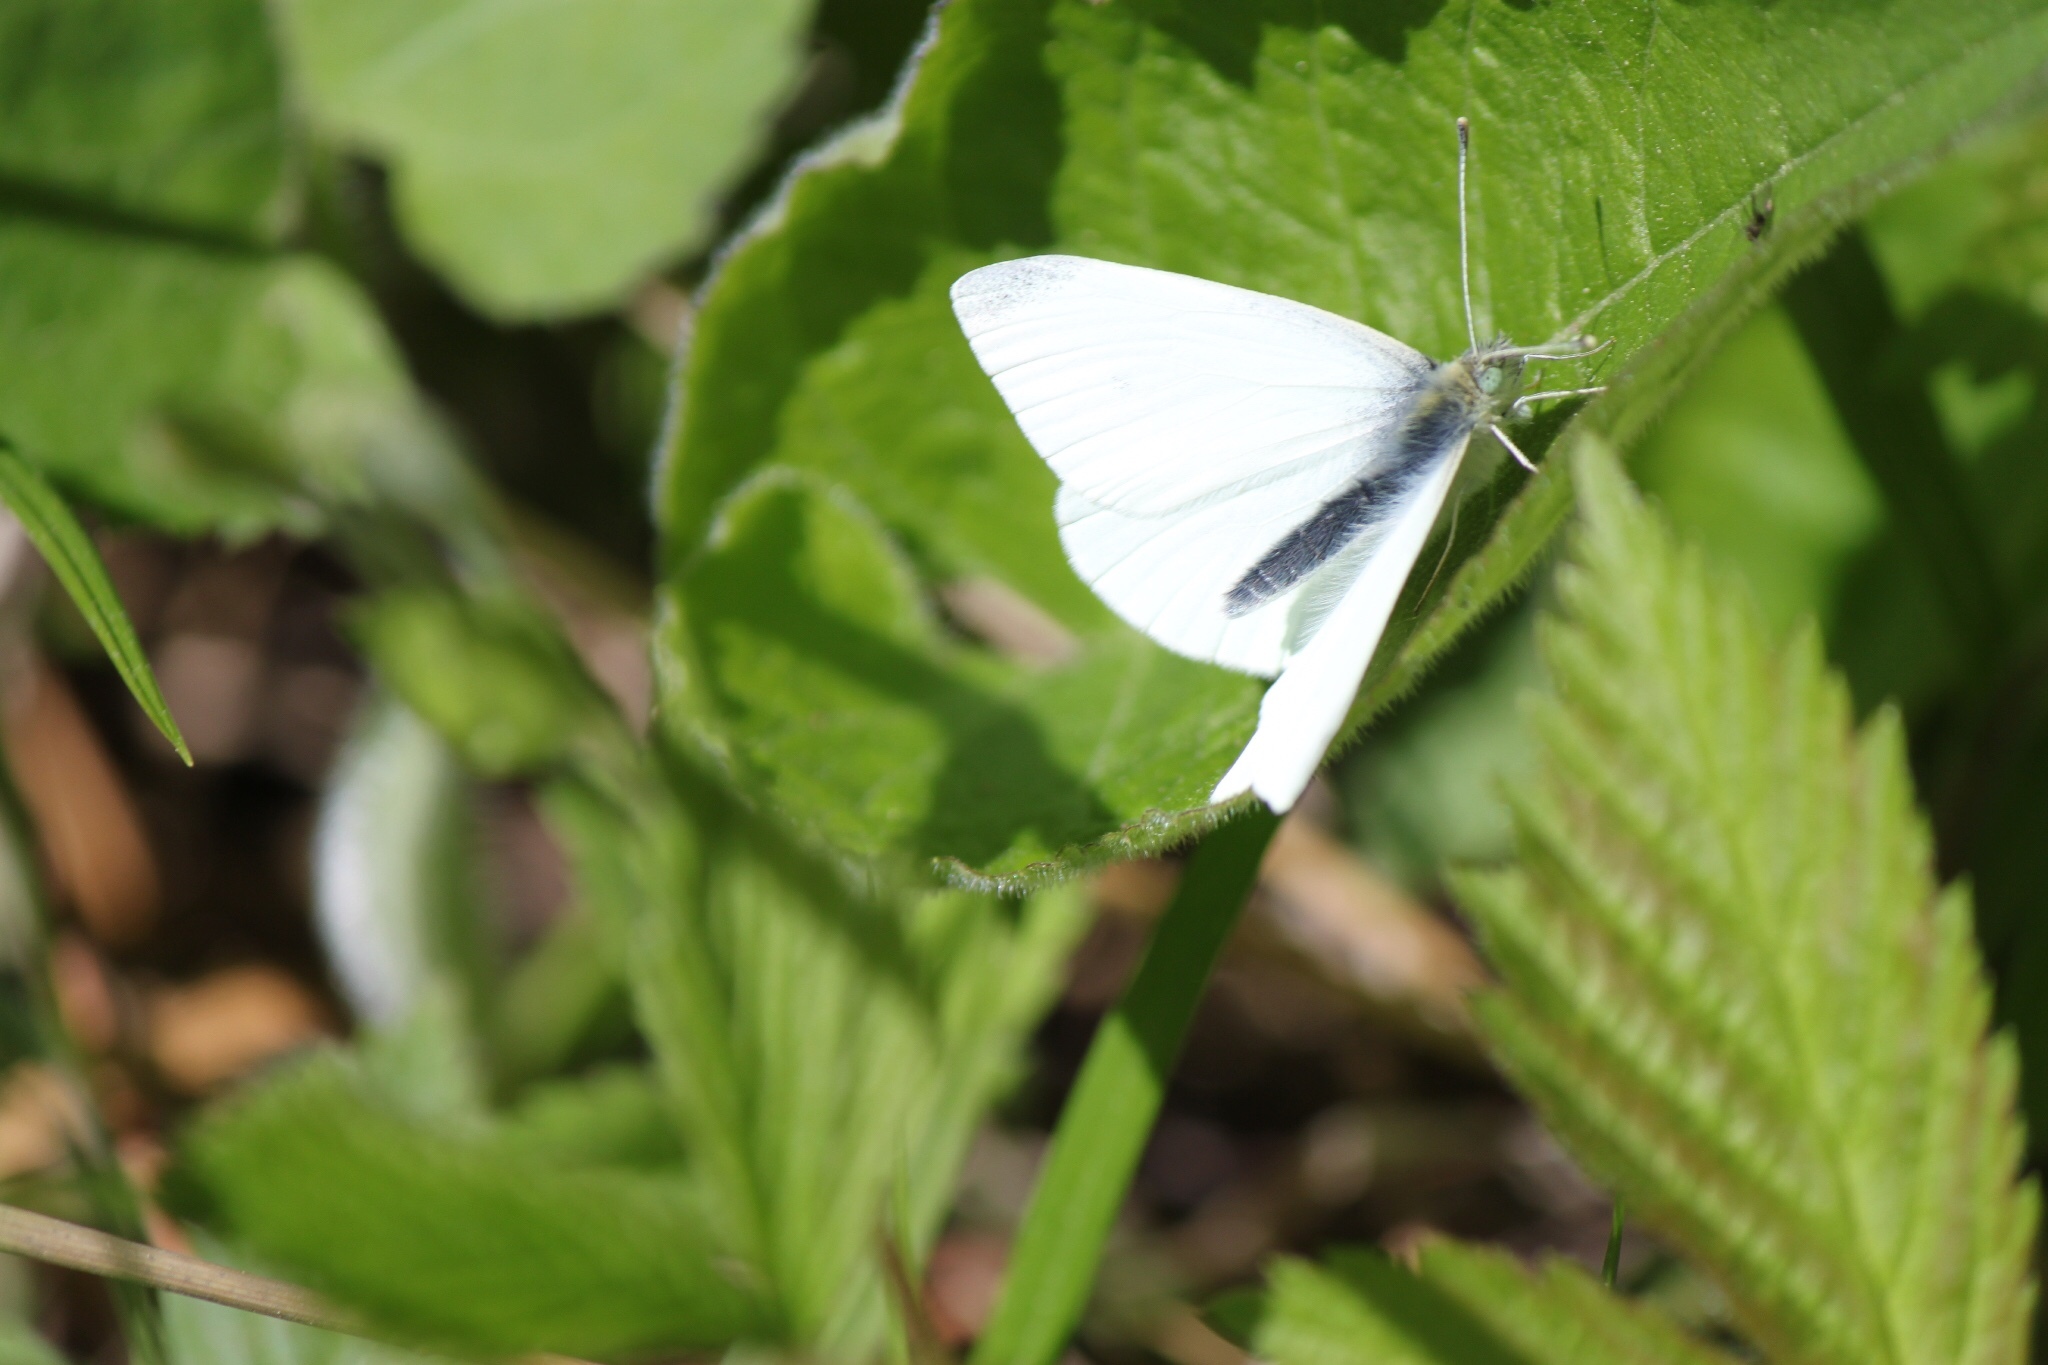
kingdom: Animalia
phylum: Arthropoda
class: Insecta
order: Lepidoptera
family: Pieridae
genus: Pieris
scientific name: Pieris oleracea
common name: Mustard white
